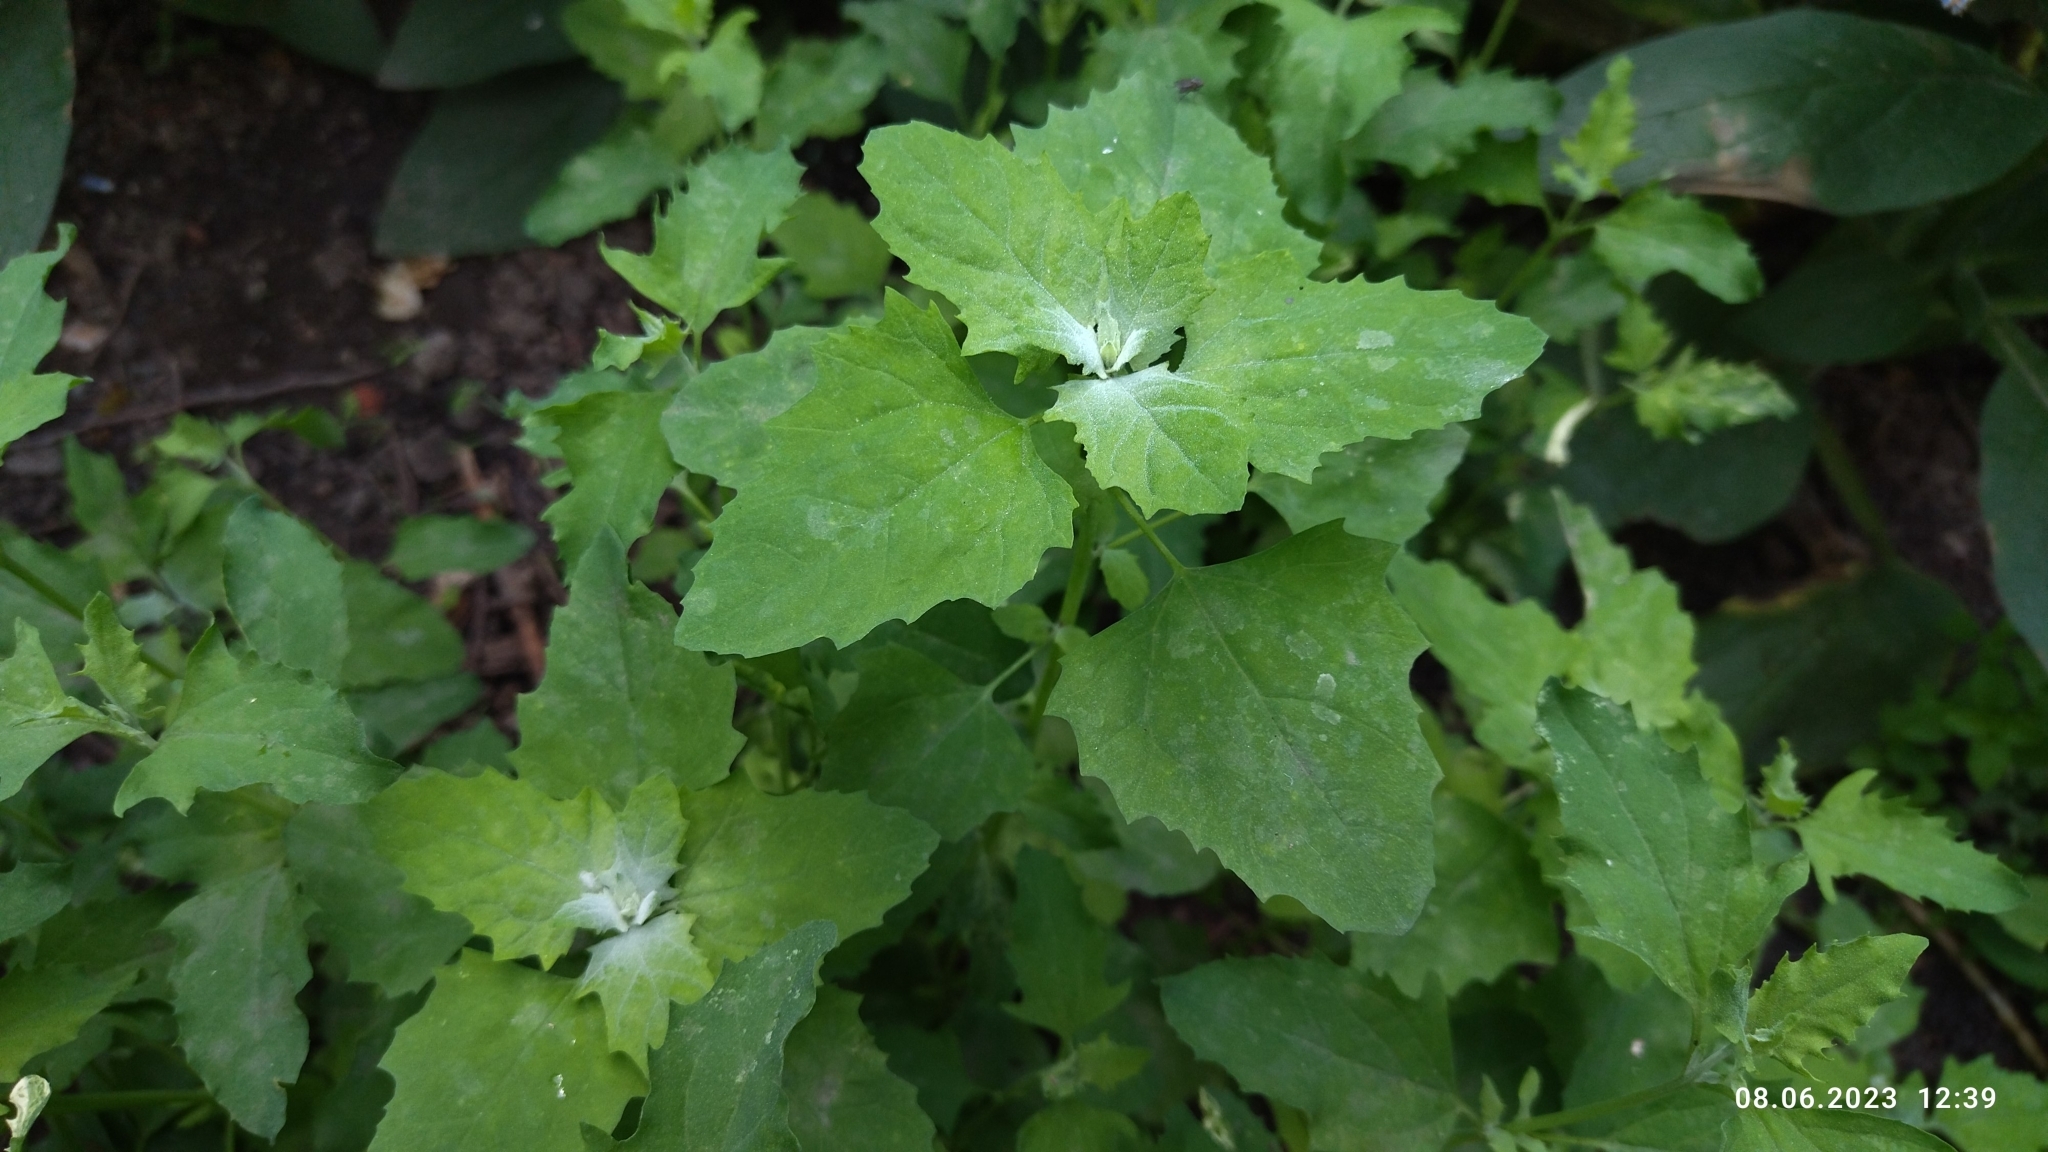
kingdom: Plantae
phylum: Tracheophyta
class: Magnoliopsida
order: Caryophyllales
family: Amaranthaceae
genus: Chenopodium
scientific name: Chenopodium album
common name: Fat-hen
